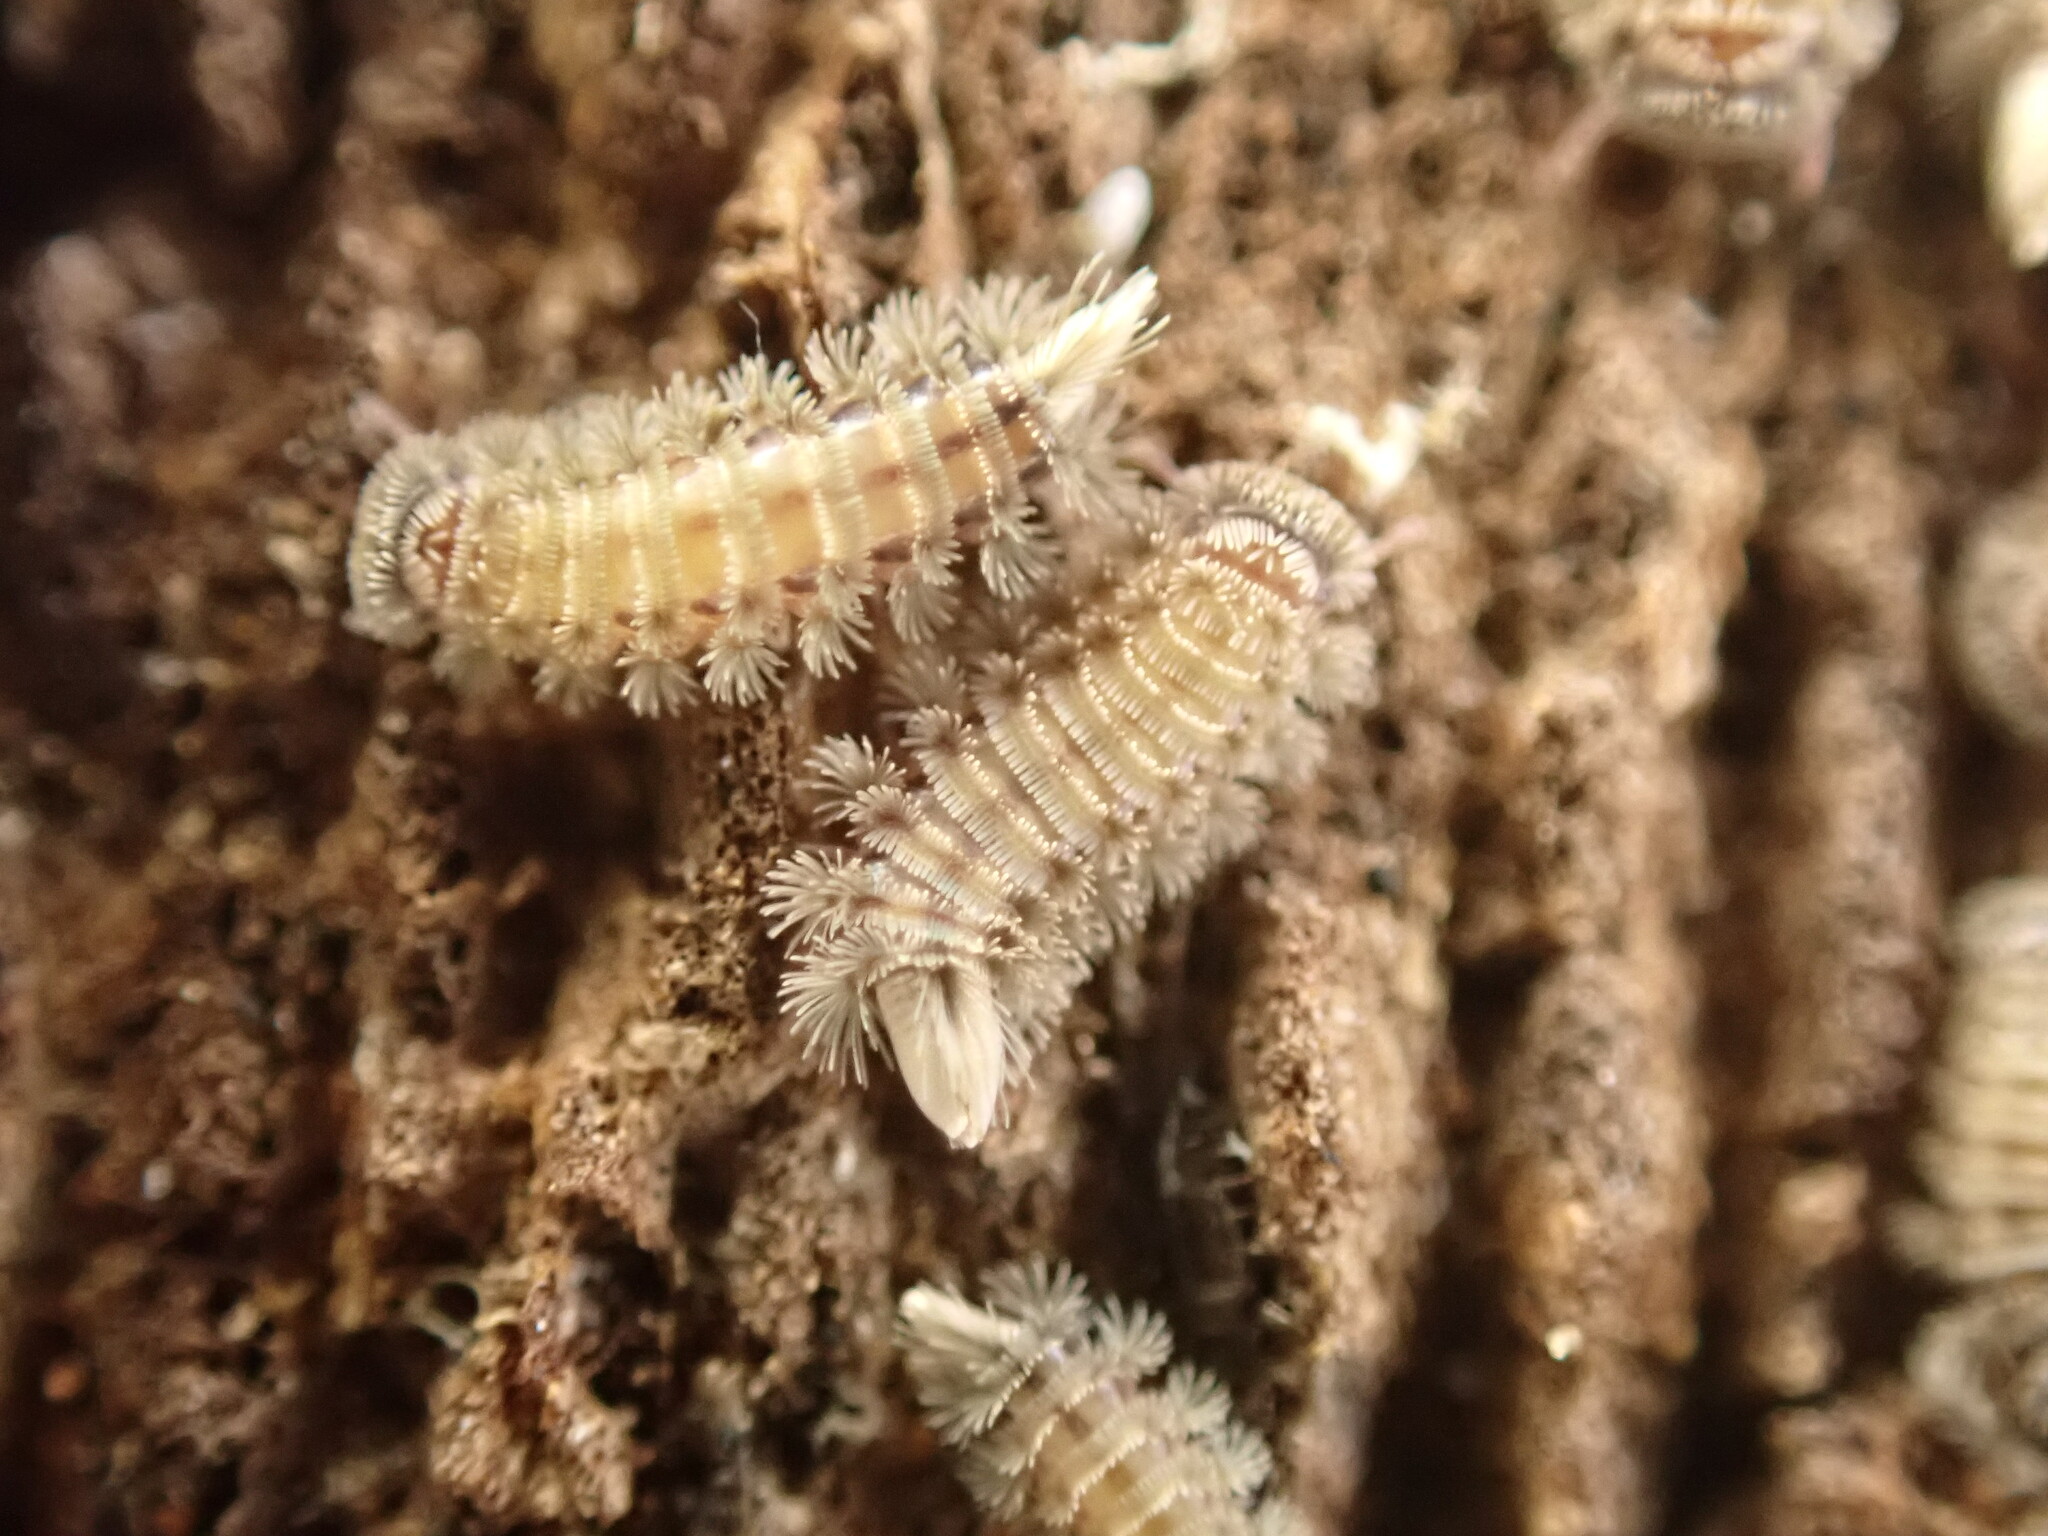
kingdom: Animalia
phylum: Arthropoda
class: Diplopoda
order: Polyxenida
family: Polyxenidae
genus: Polyxenus
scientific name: Polyxenus lagurus
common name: Bristly millipede
